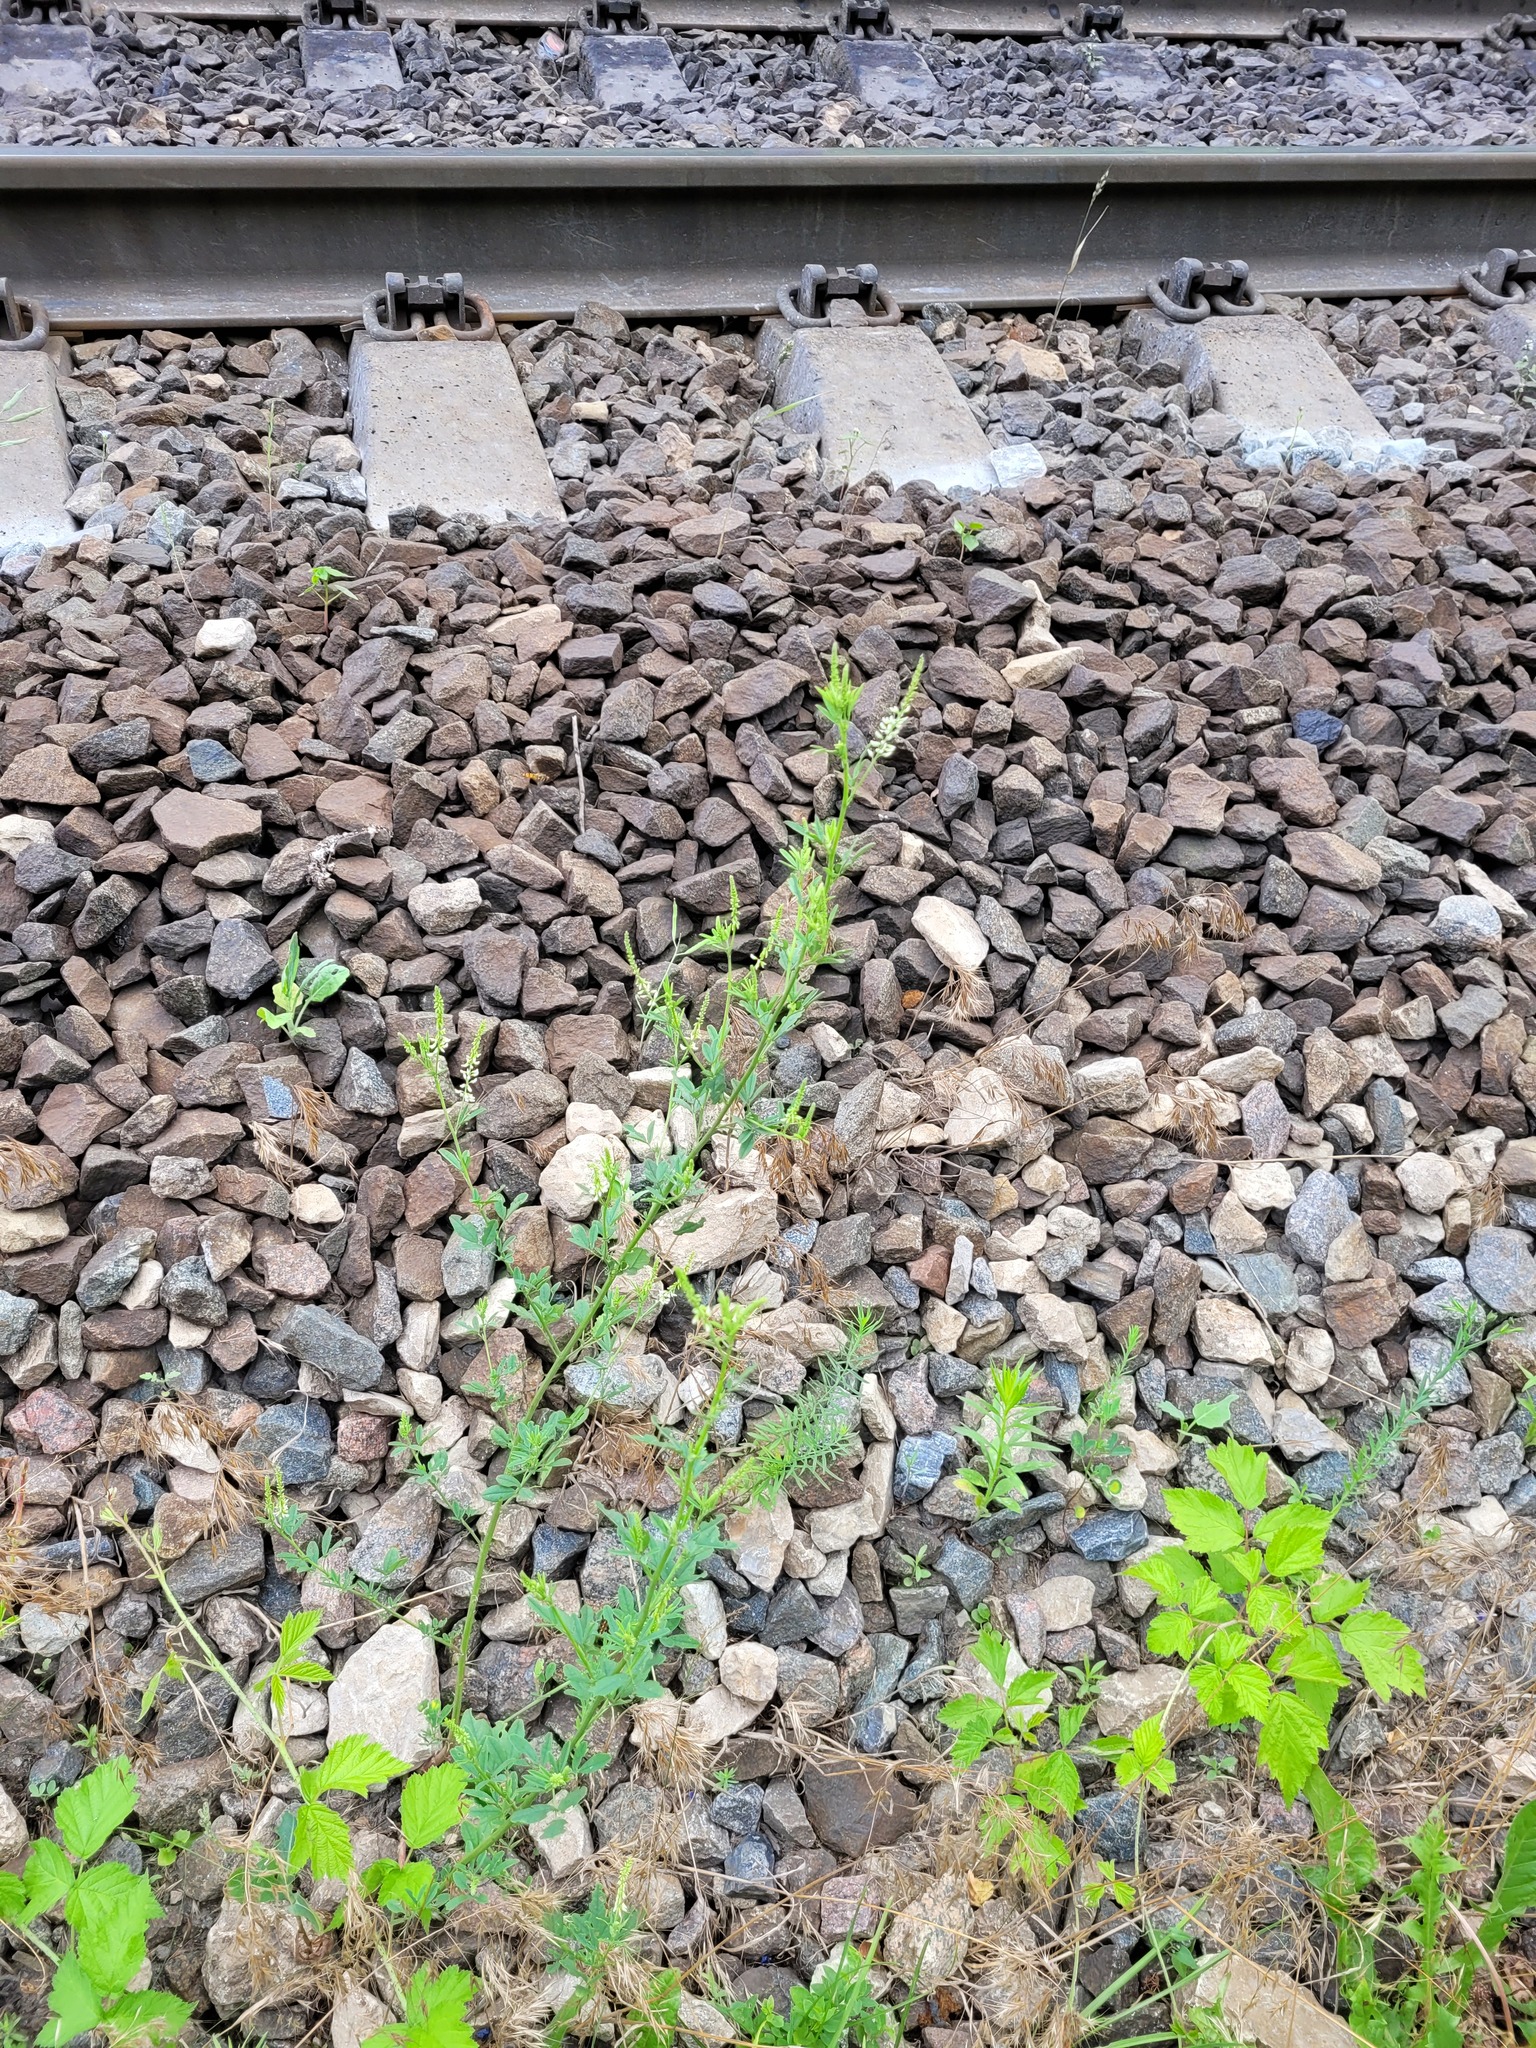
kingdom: Plantae
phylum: Tracheophyta
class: Magnoliopsida
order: Fabales
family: Fabaceae
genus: Melilotus
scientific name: Melilotus albus
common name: White melilot
